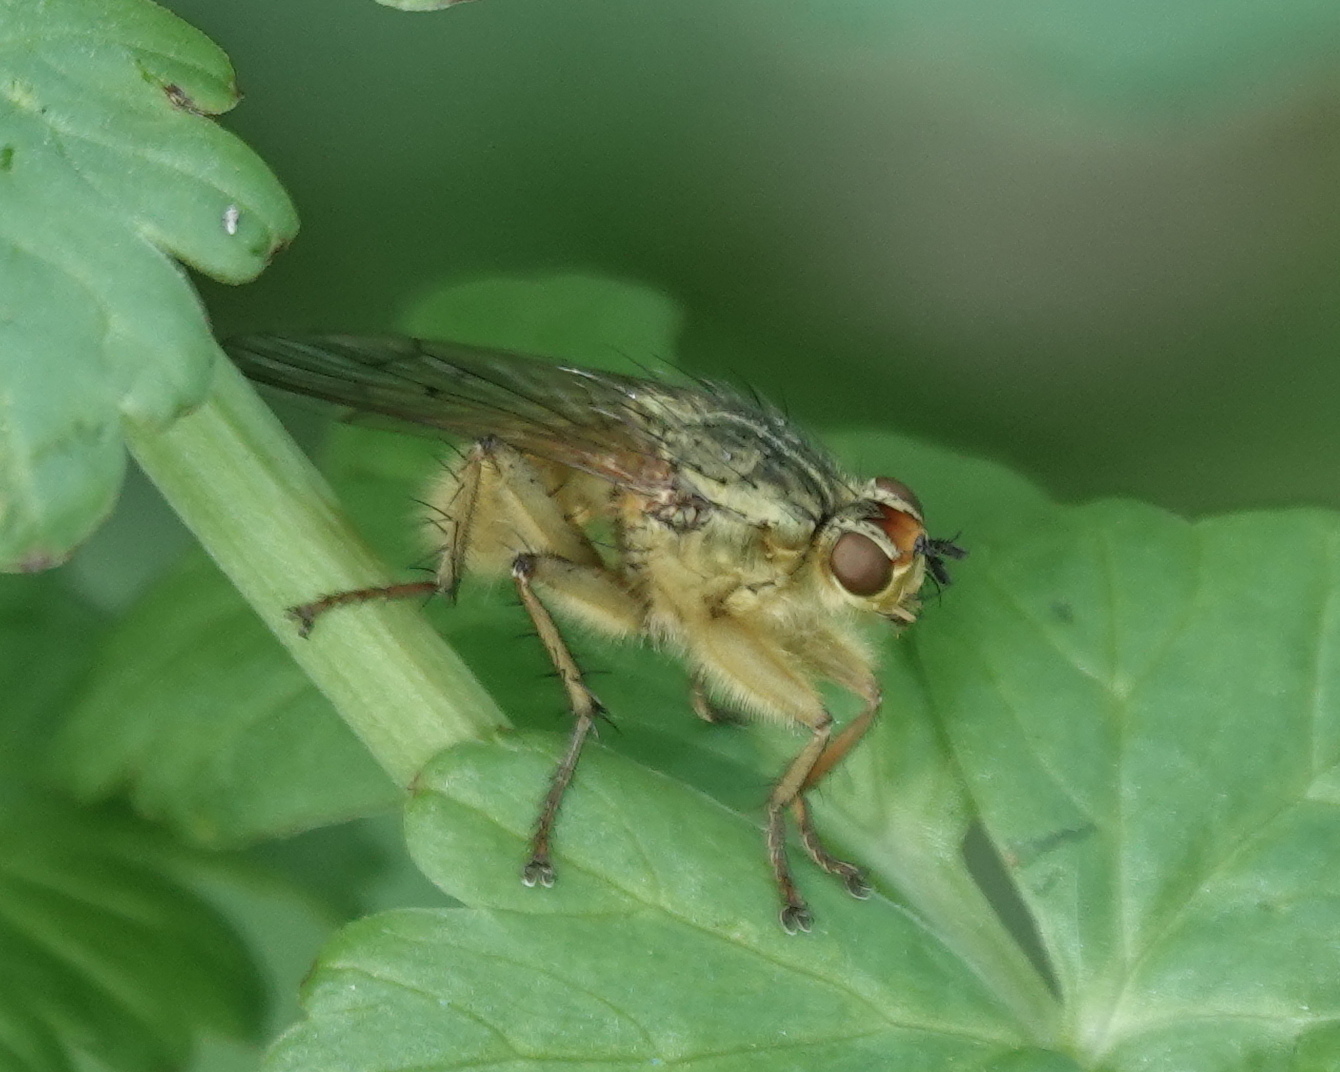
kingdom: Animalia
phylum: Arthropoda
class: Insecta
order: Diptera
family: Scathophagidae
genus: Scathophaga
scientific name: Scathophaga stercoraria
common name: Yellow dung fly
